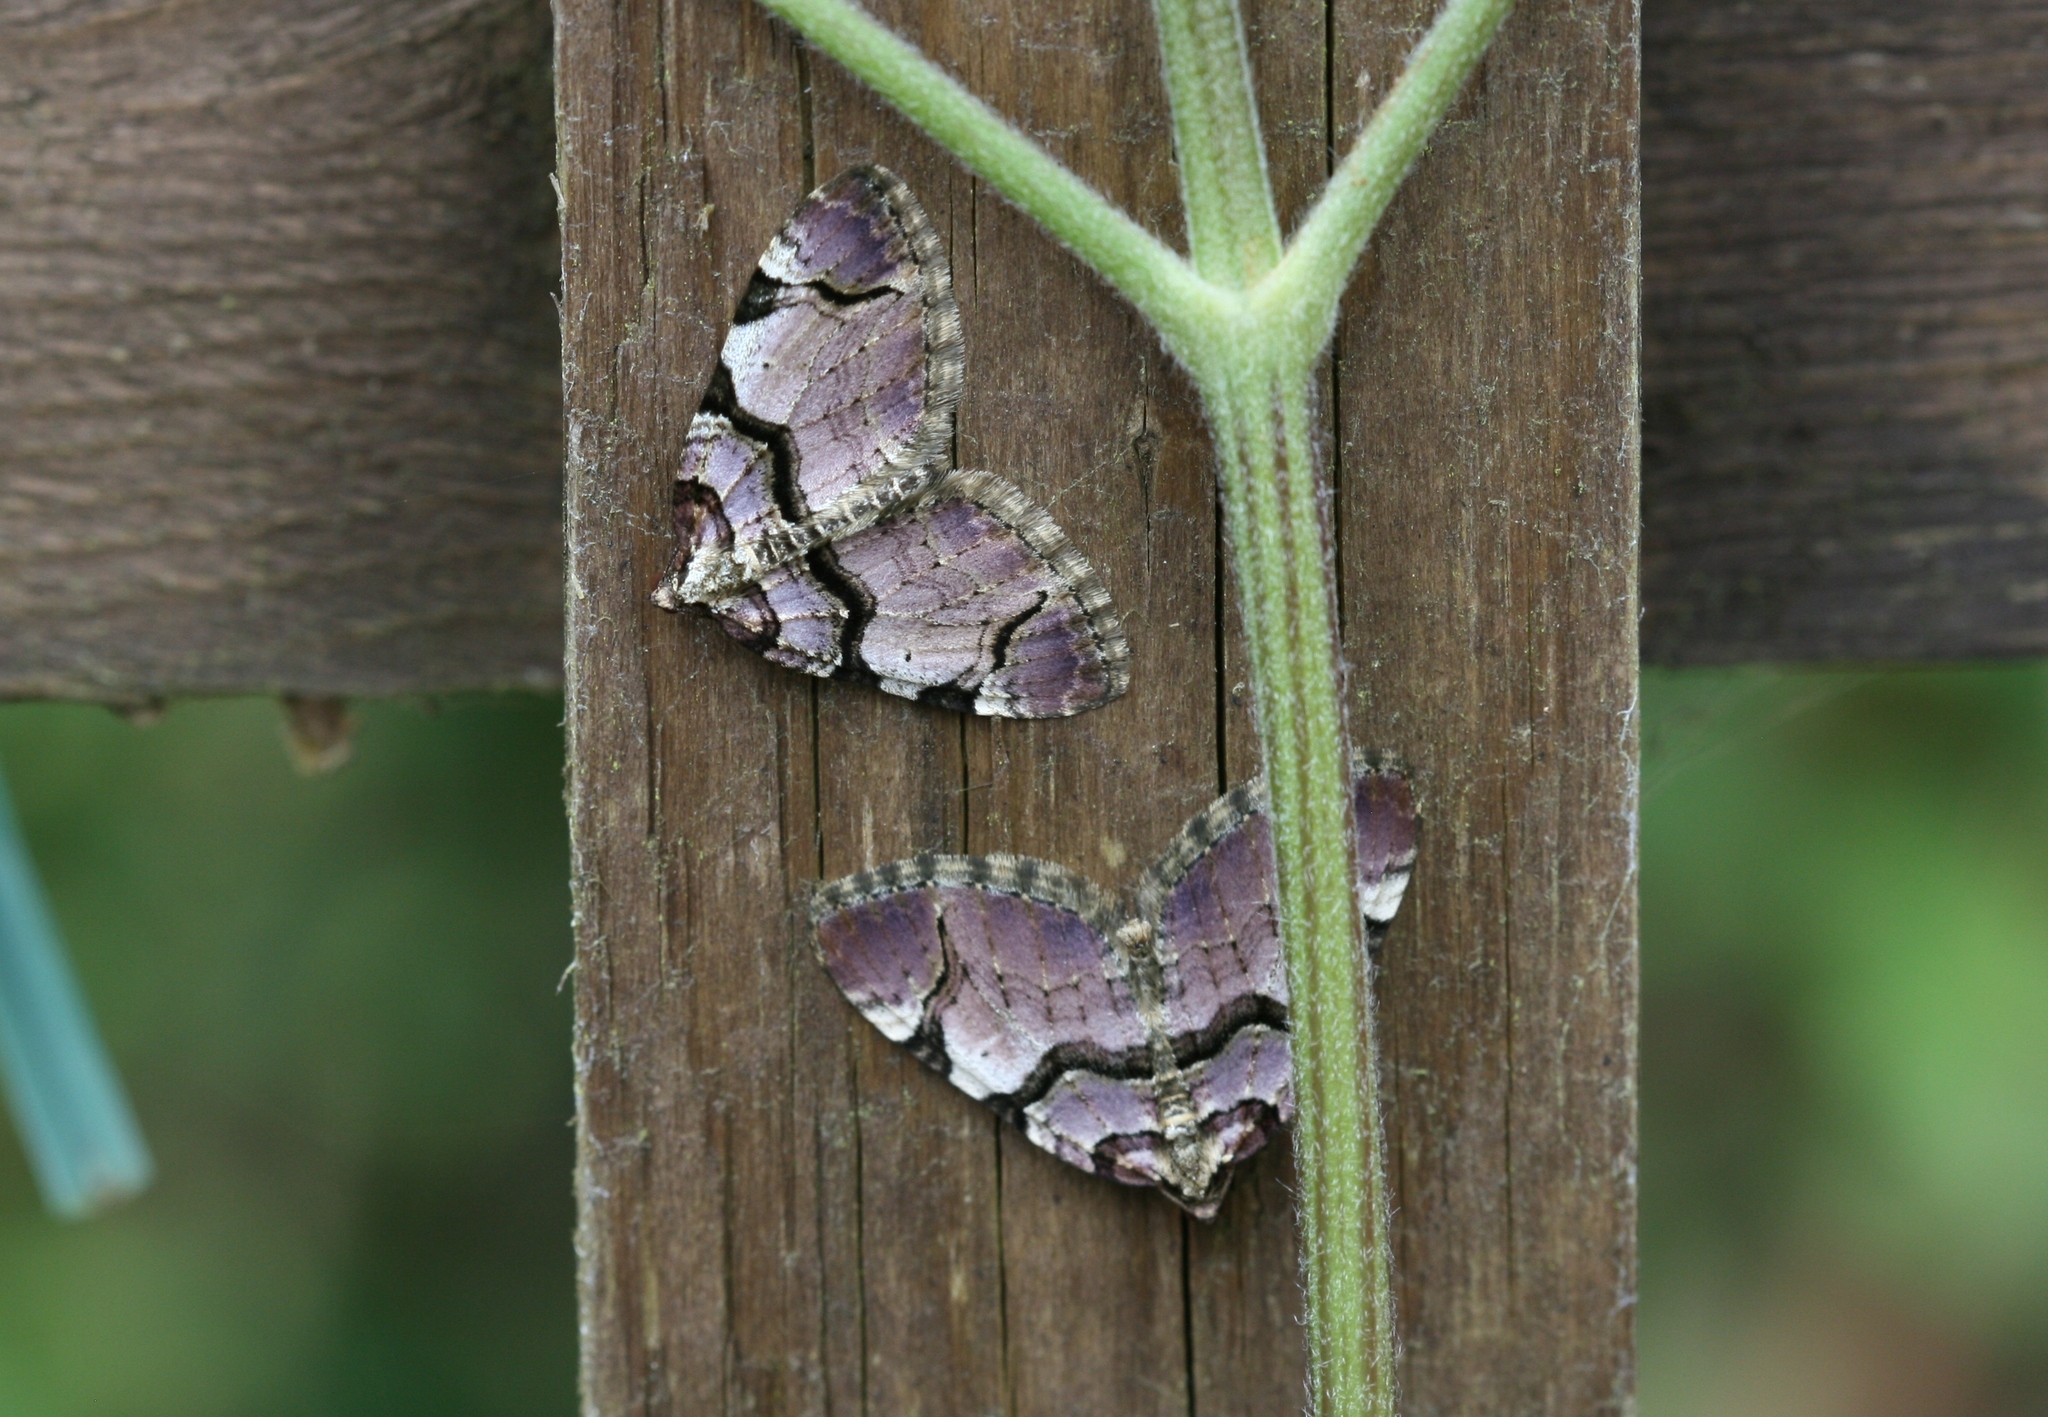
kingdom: Animalia
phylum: Arthropoda
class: Insecta
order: Lepidoptera
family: Geometridae
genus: Anticlea
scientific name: Anticlea derivata
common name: Streamer
